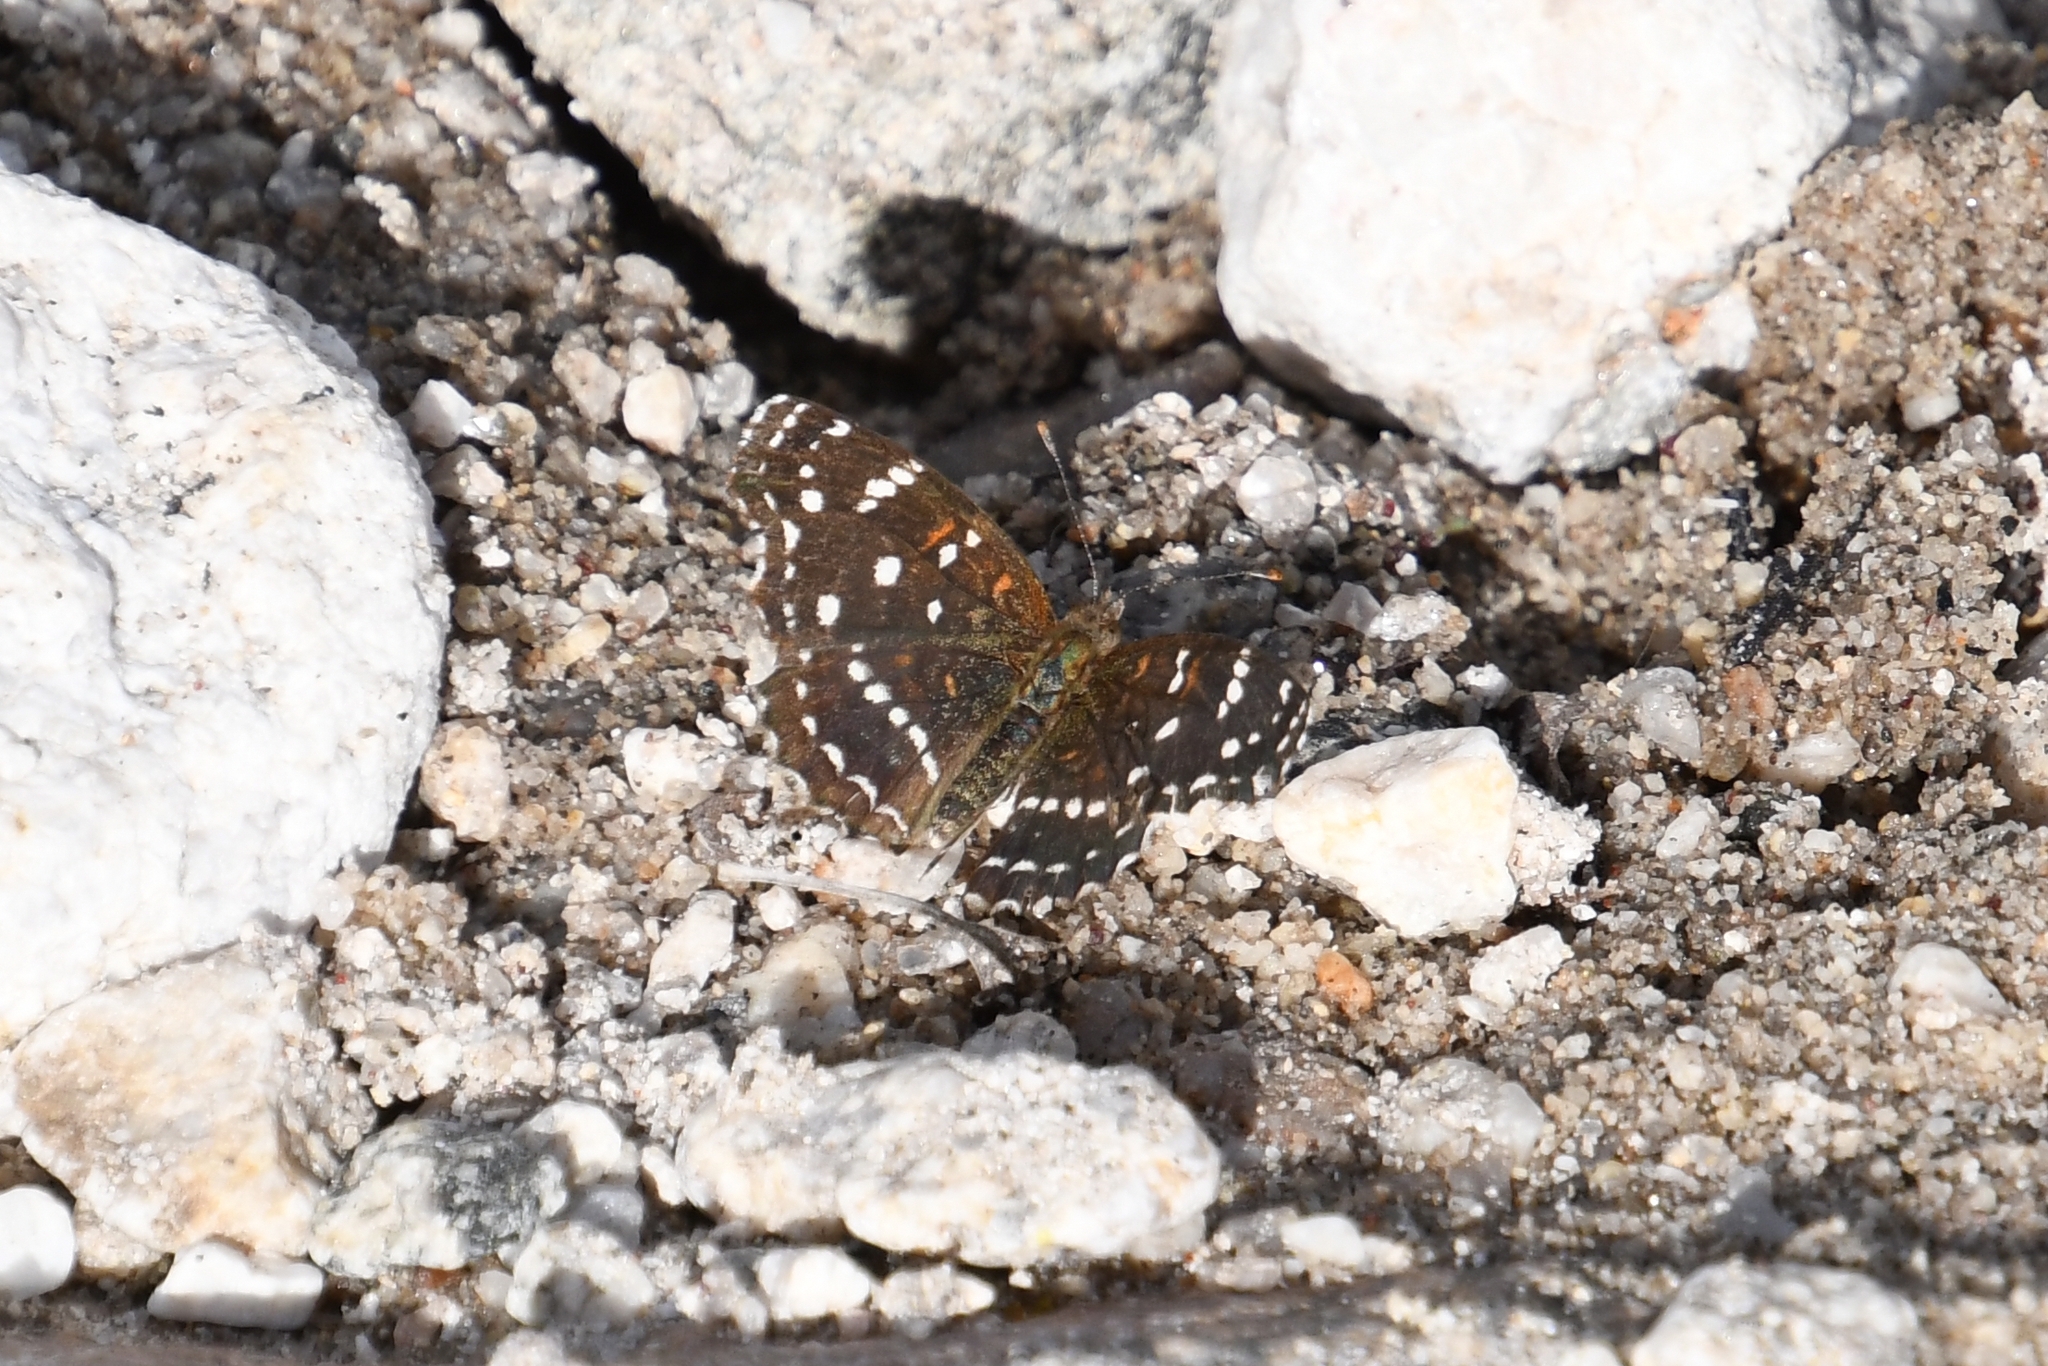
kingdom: Animalia
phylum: Arthropoda
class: Insecta
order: Lepidoptera
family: Nymphalidae
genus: Anthanassa
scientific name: Anthanassa texana
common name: Texan crescent
